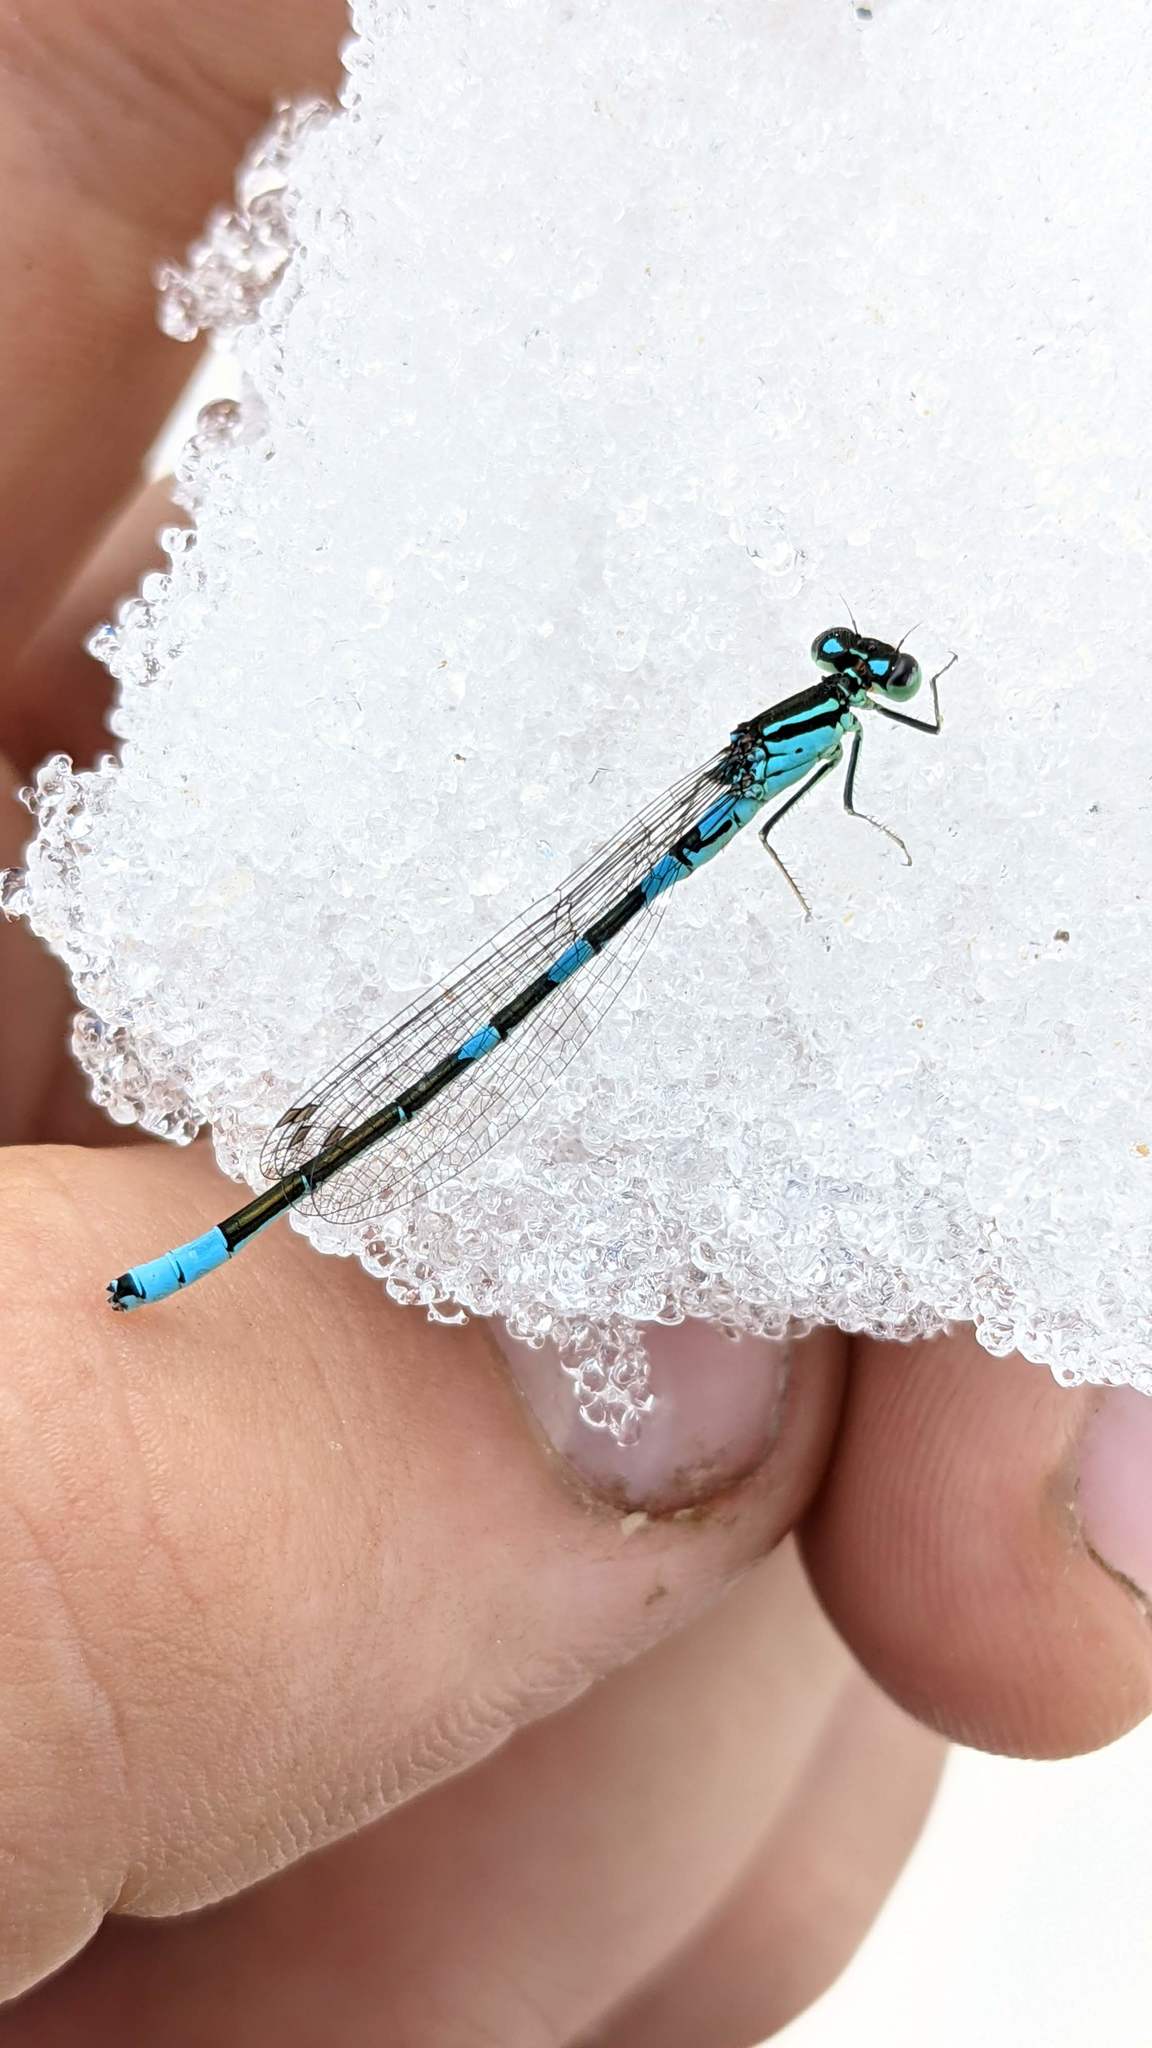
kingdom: Animalia
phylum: Arthropoda
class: Insecta
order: Odonata
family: Coenagrionidae
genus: Coenagrion
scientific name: Coenagrion resolutum
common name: Taiga bluet
